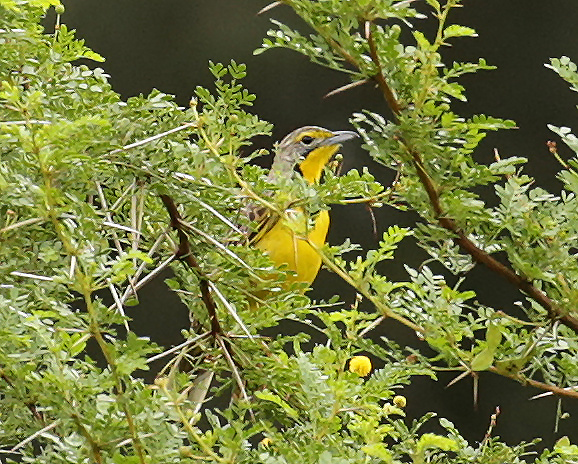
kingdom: Animalia
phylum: Chordata
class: Aves
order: Passeriformes
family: Motacillidae
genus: Macronyx
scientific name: Macronyx croceus
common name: Yellow-throated longclaw
